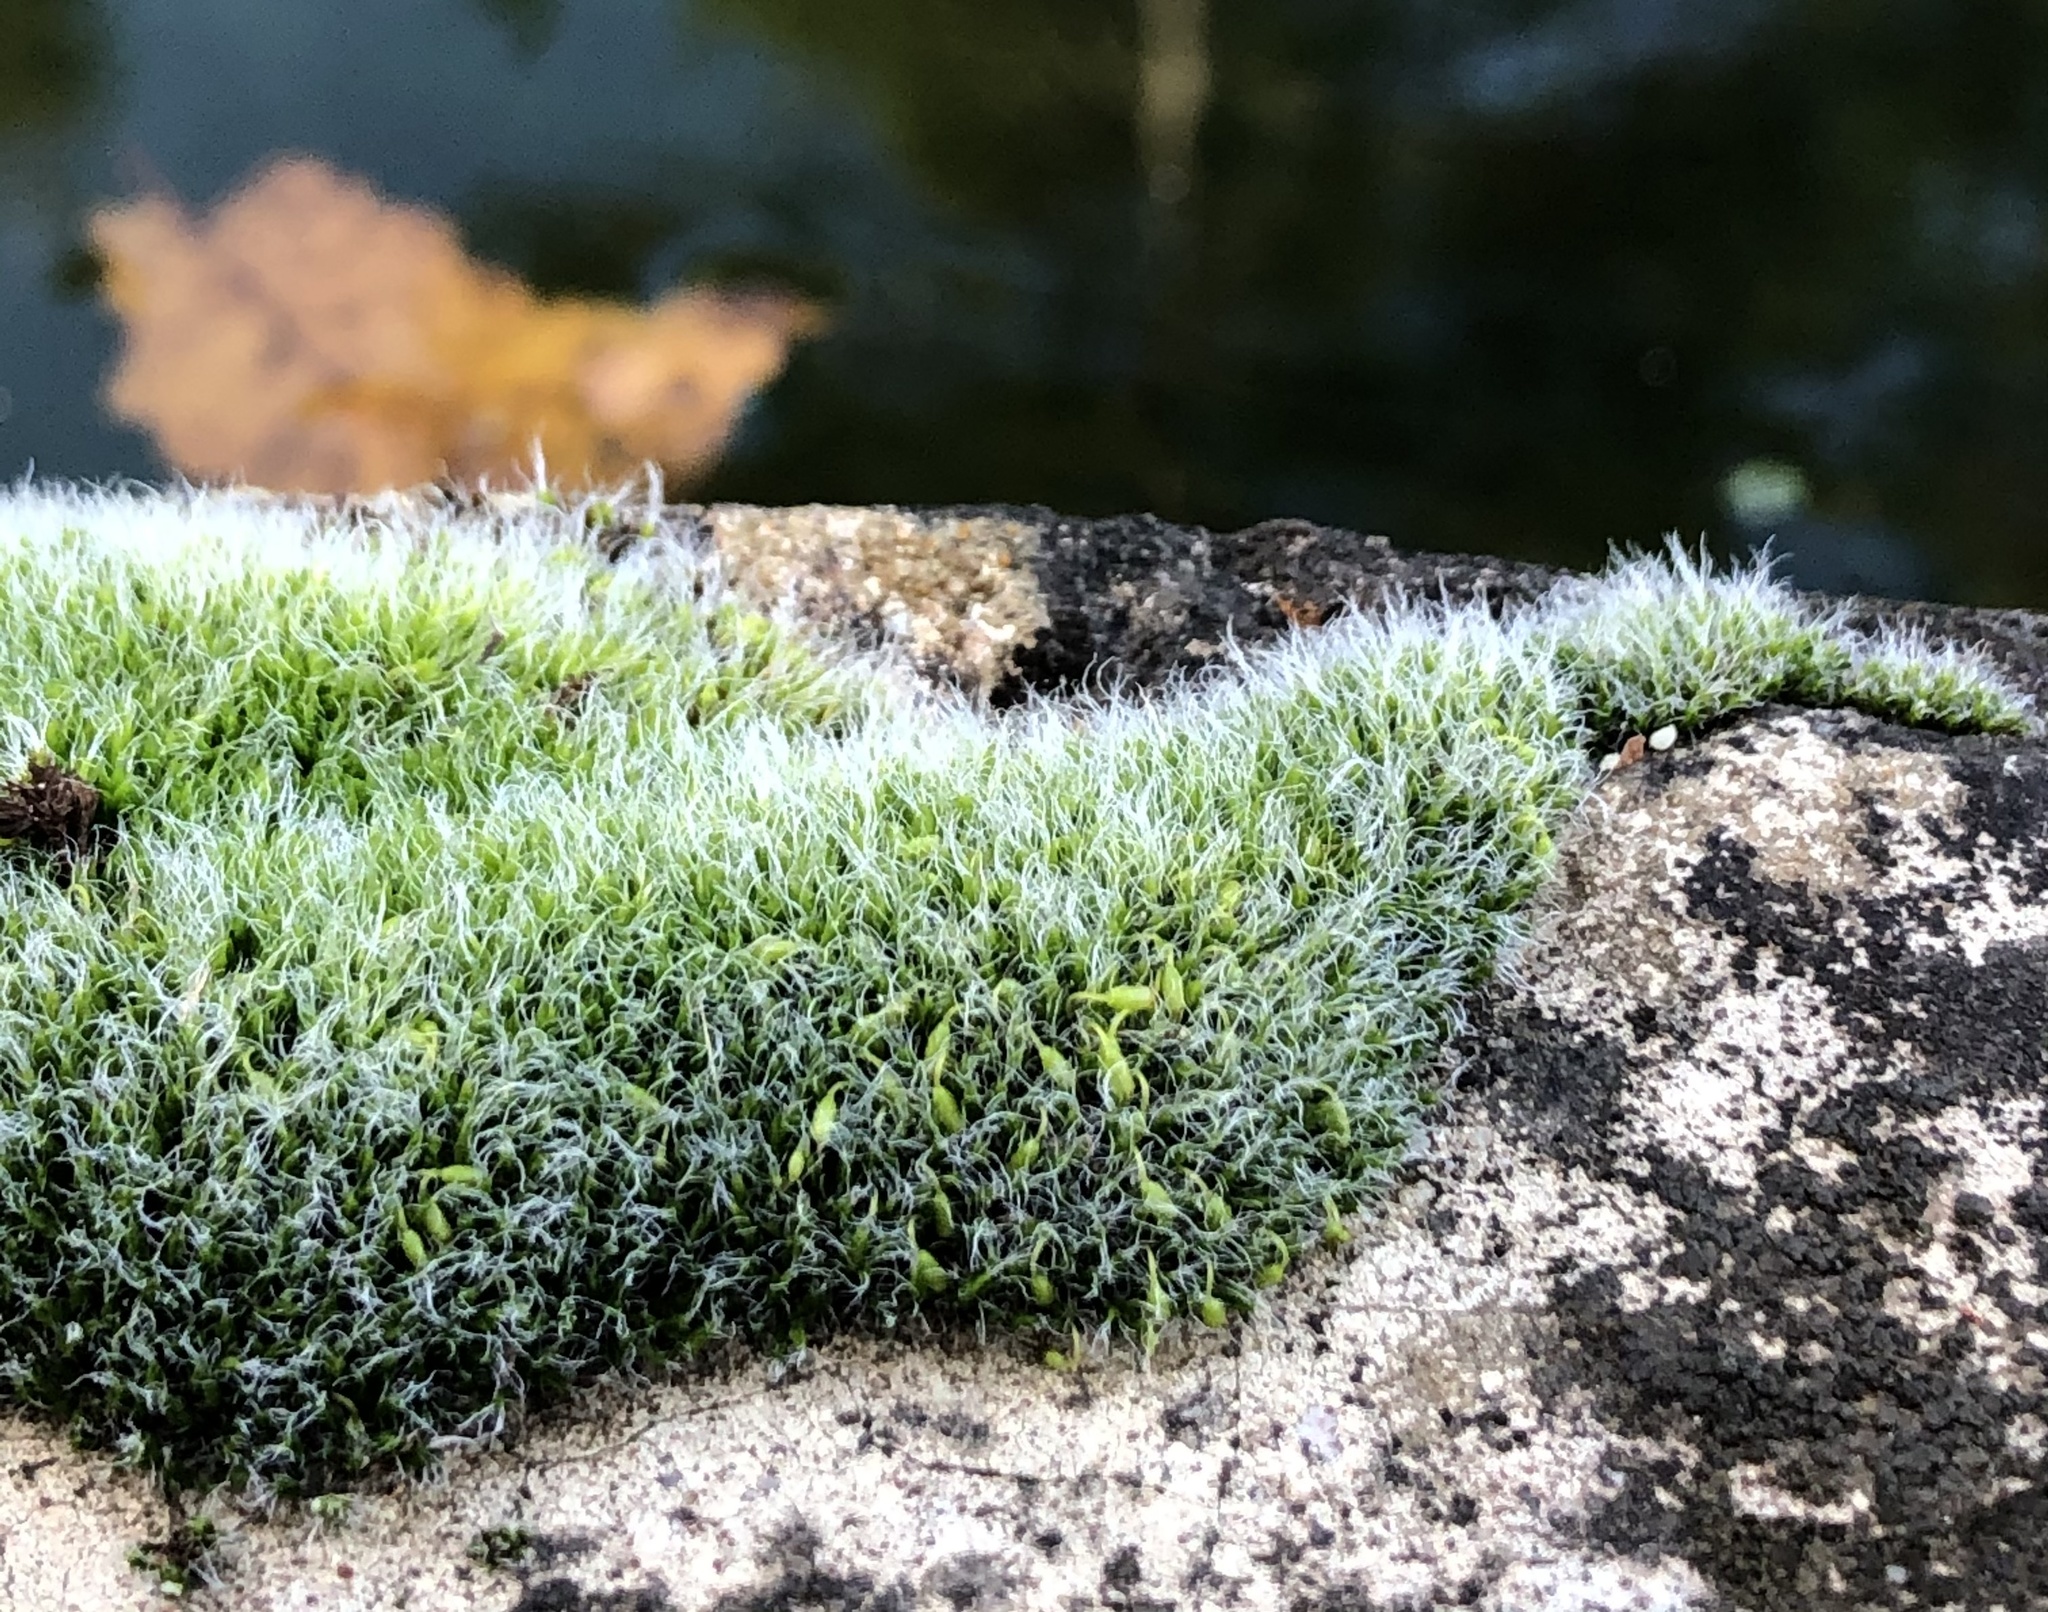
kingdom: Plantae
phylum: Bryophyta
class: Bryopsida
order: Grimmiales
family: Grimmiaceae
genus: Grimmia
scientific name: Grimmia pulvinata
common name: Grey-cushioned grimmia
